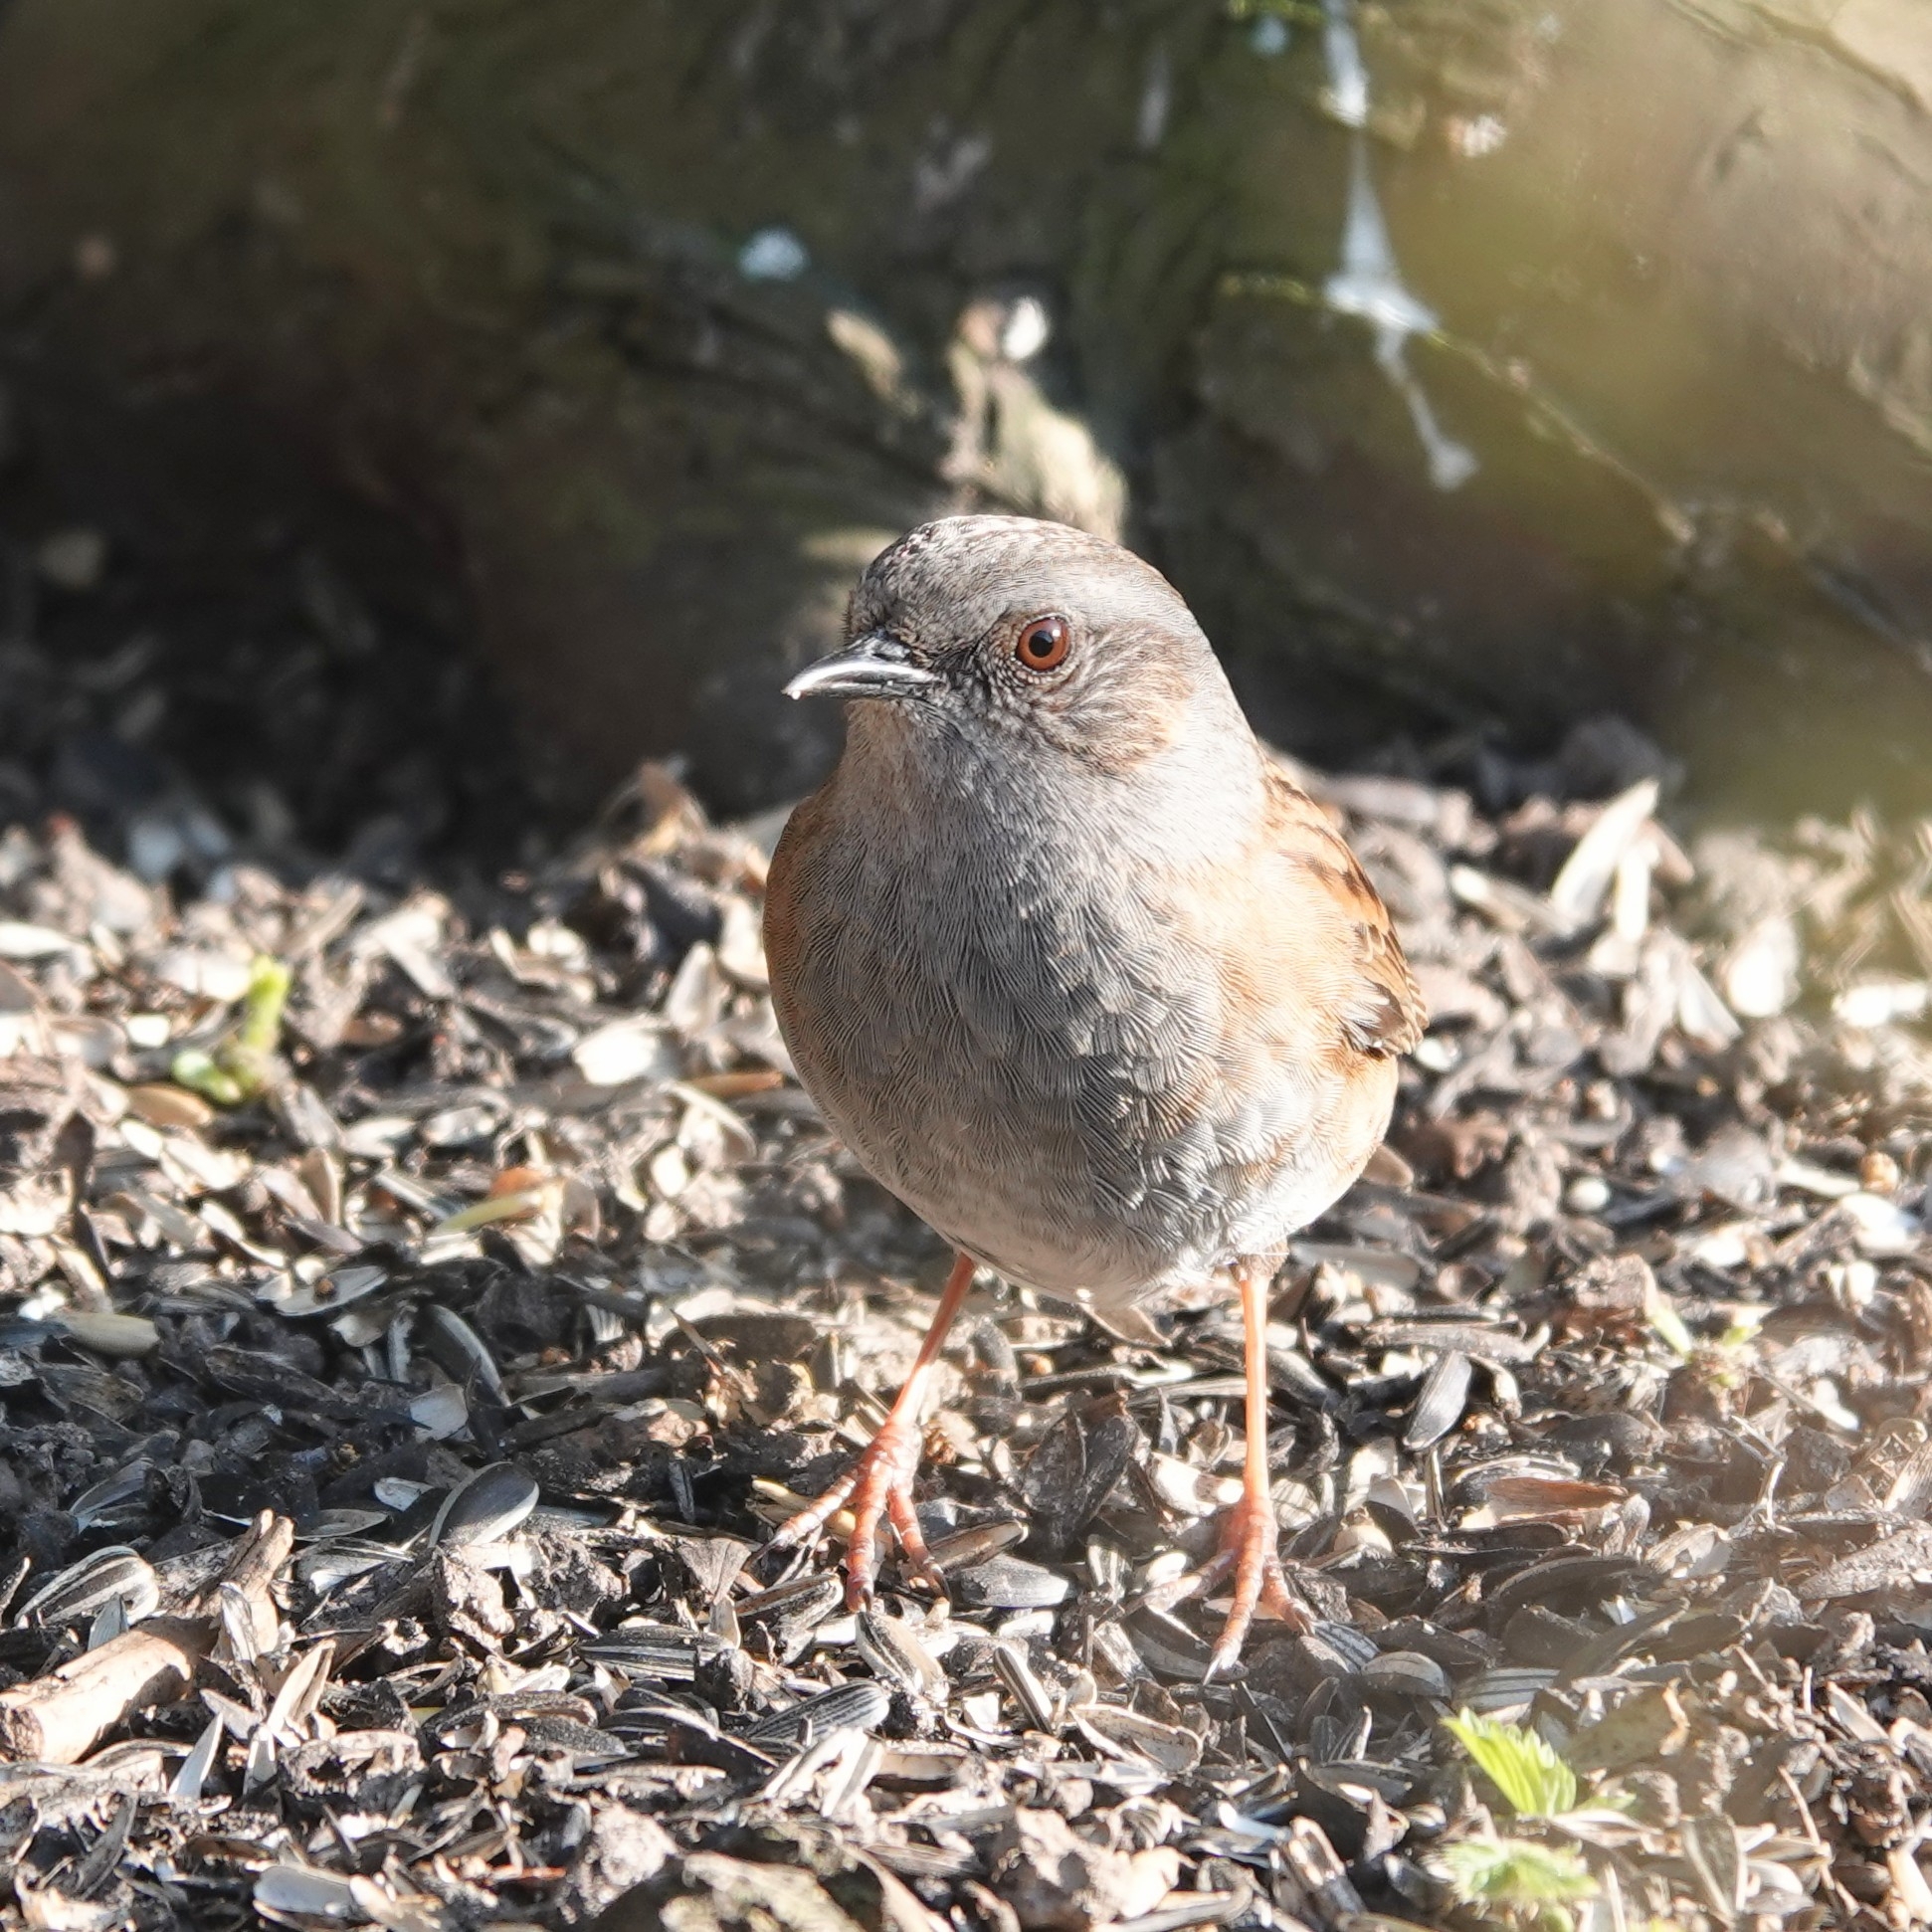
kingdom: Animalia
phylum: Chordata
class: Aves
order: Passeriformes
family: Prunellidae
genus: Prunella
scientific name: Prunella modularis
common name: Dunnock
